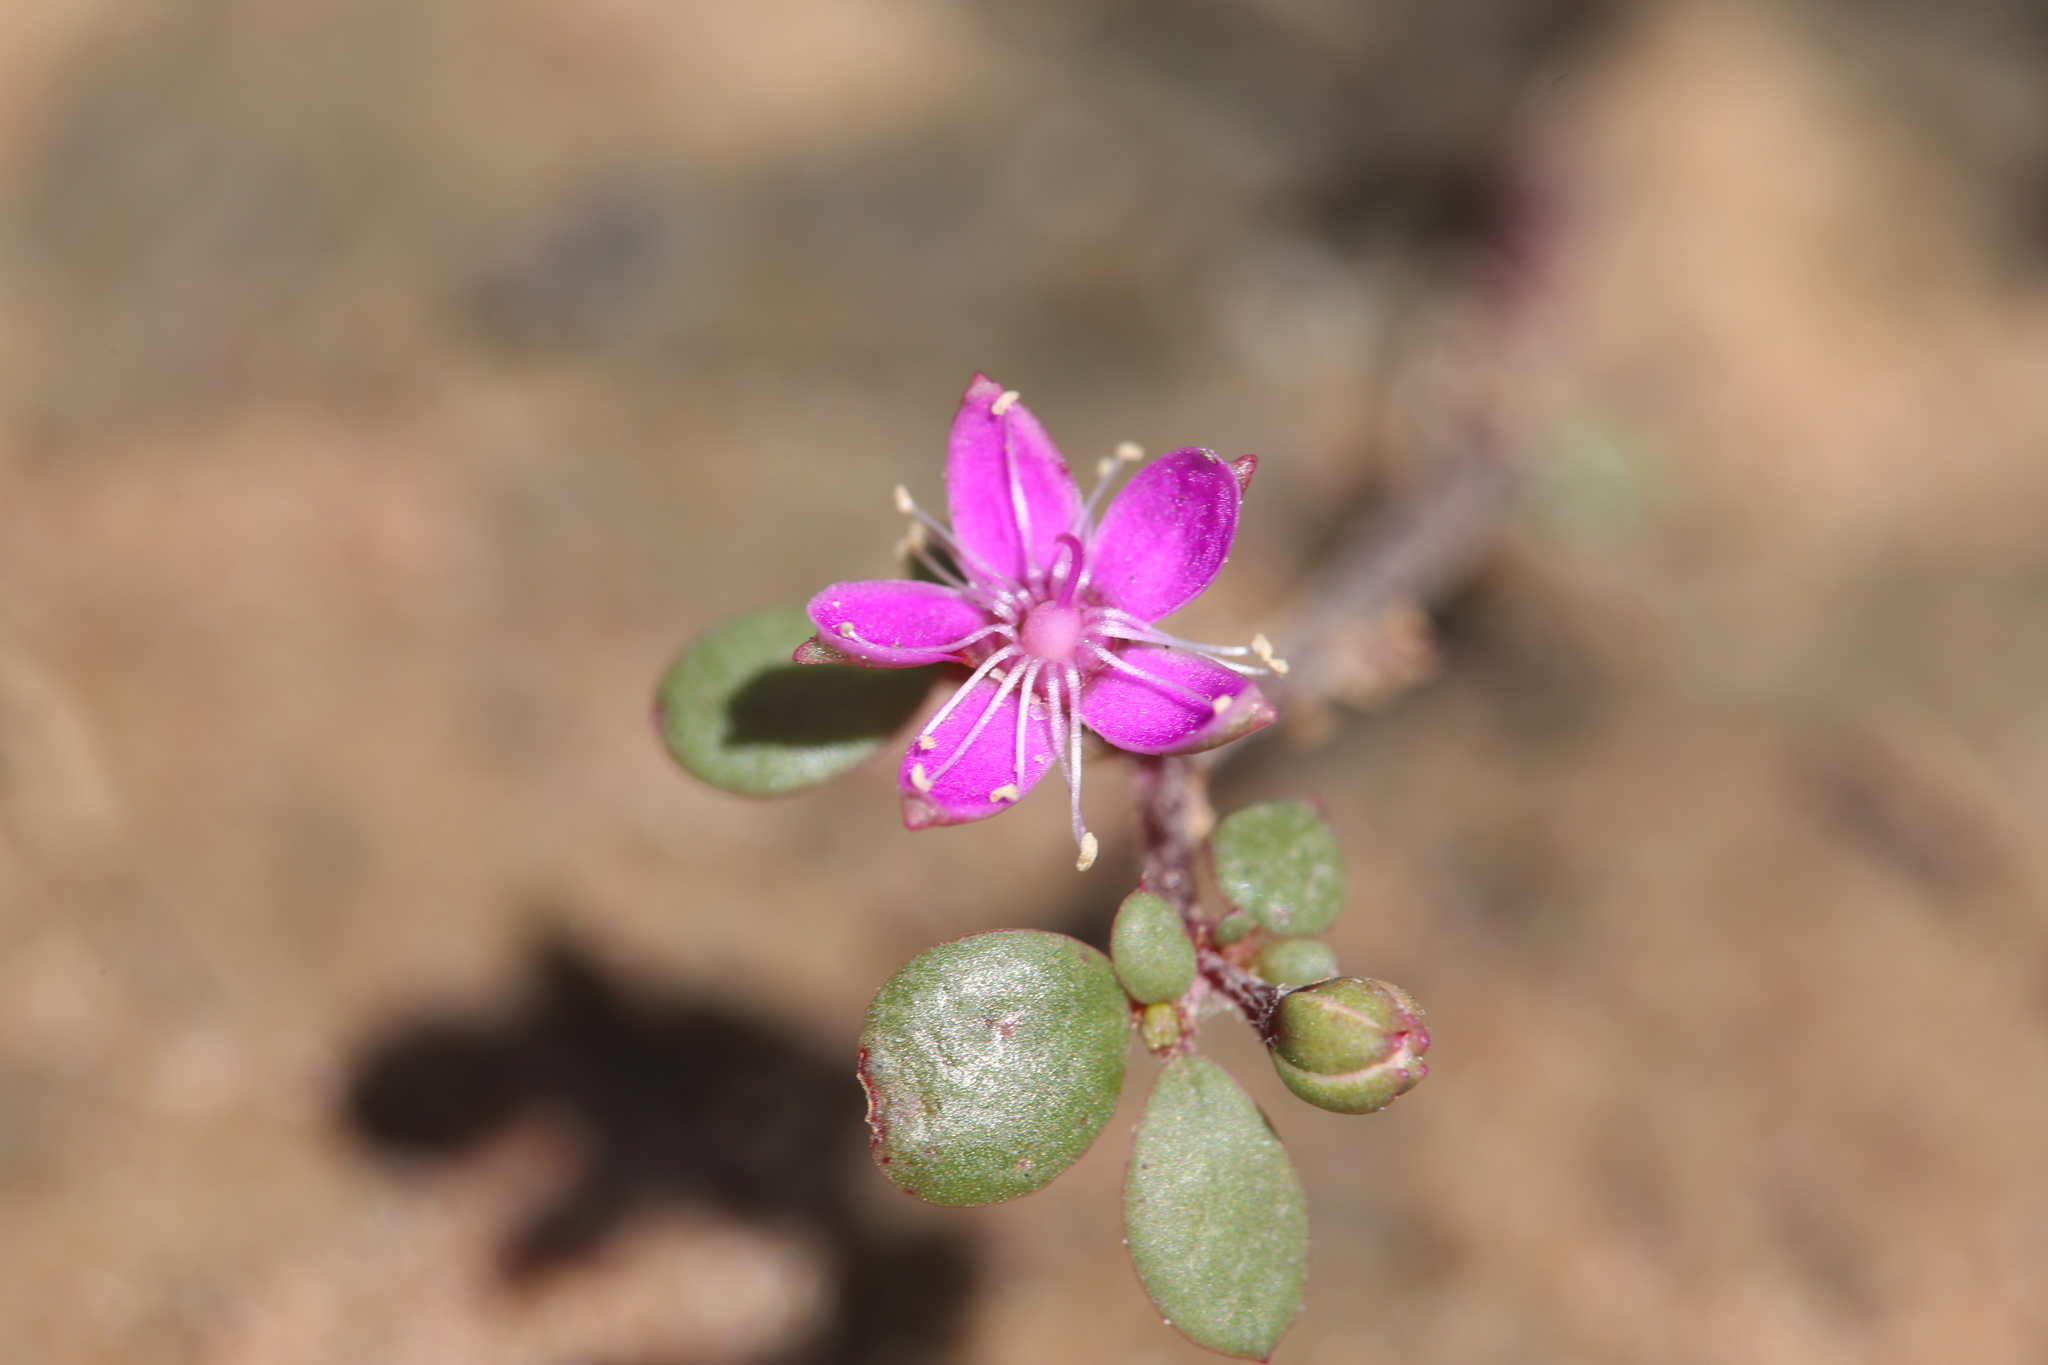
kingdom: Plantae
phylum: Tracheophyta
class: Magnoliopsida
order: Caryophyllales
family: Aizoaceae
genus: Trianthema
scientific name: Trianthema glossostigma
